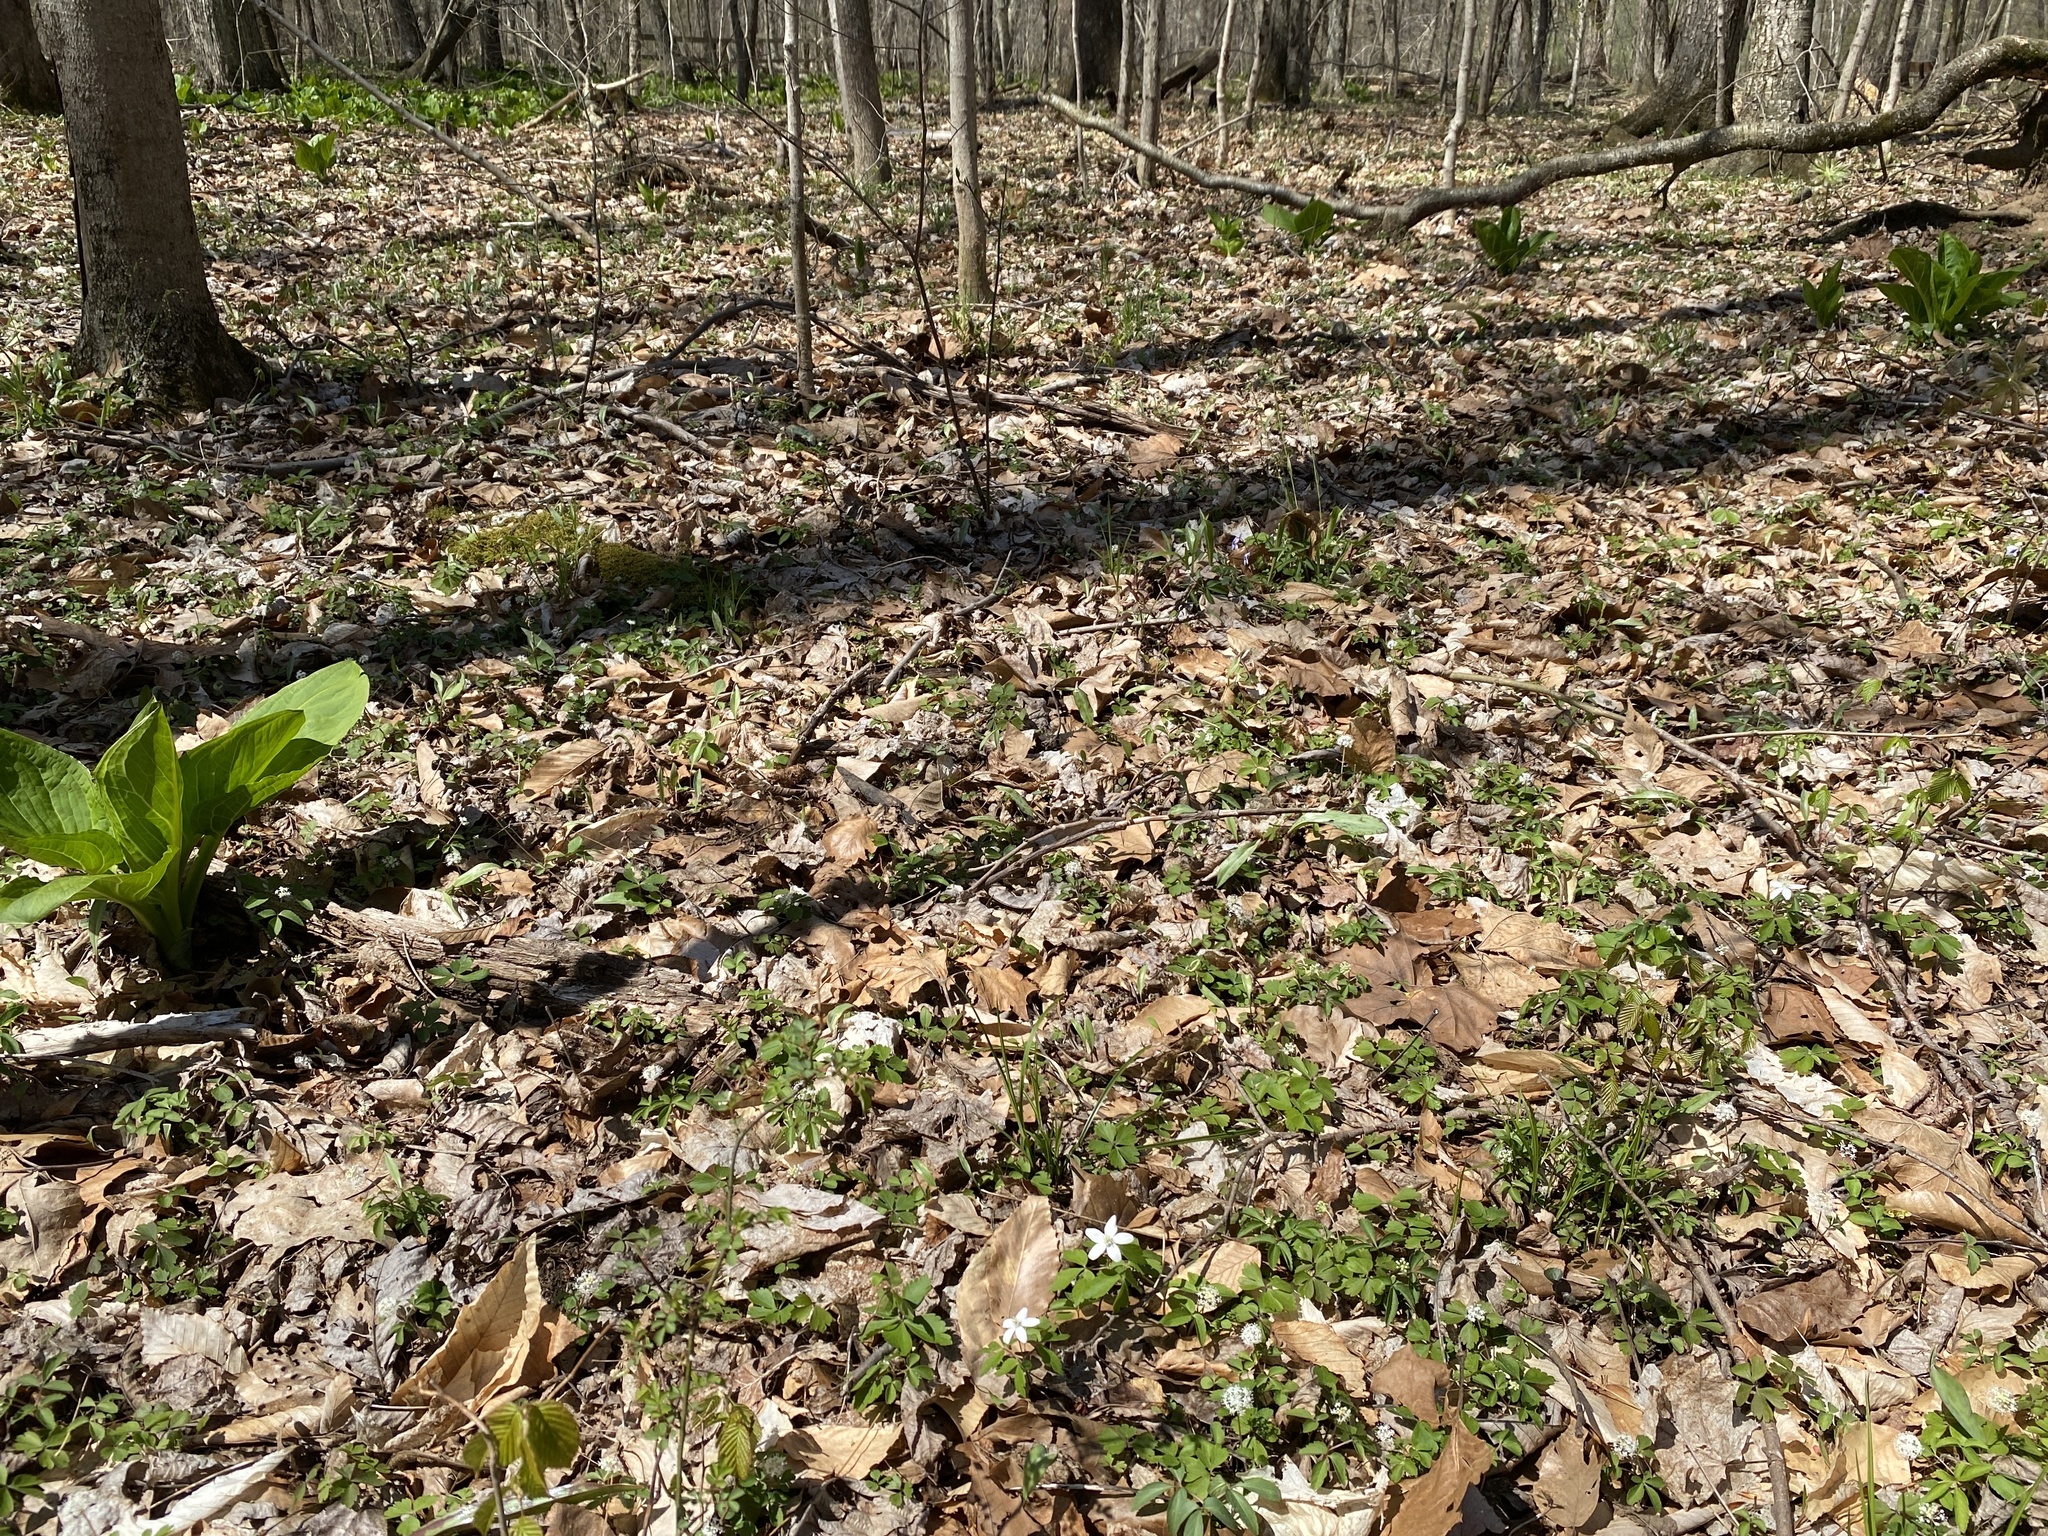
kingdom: Plantae
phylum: Tracheophyta
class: Magnoliopsida
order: Ranunculales
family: Ranunculaceae
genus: Anemone
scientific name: Anemone quinquefolia
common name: Wood anemone
